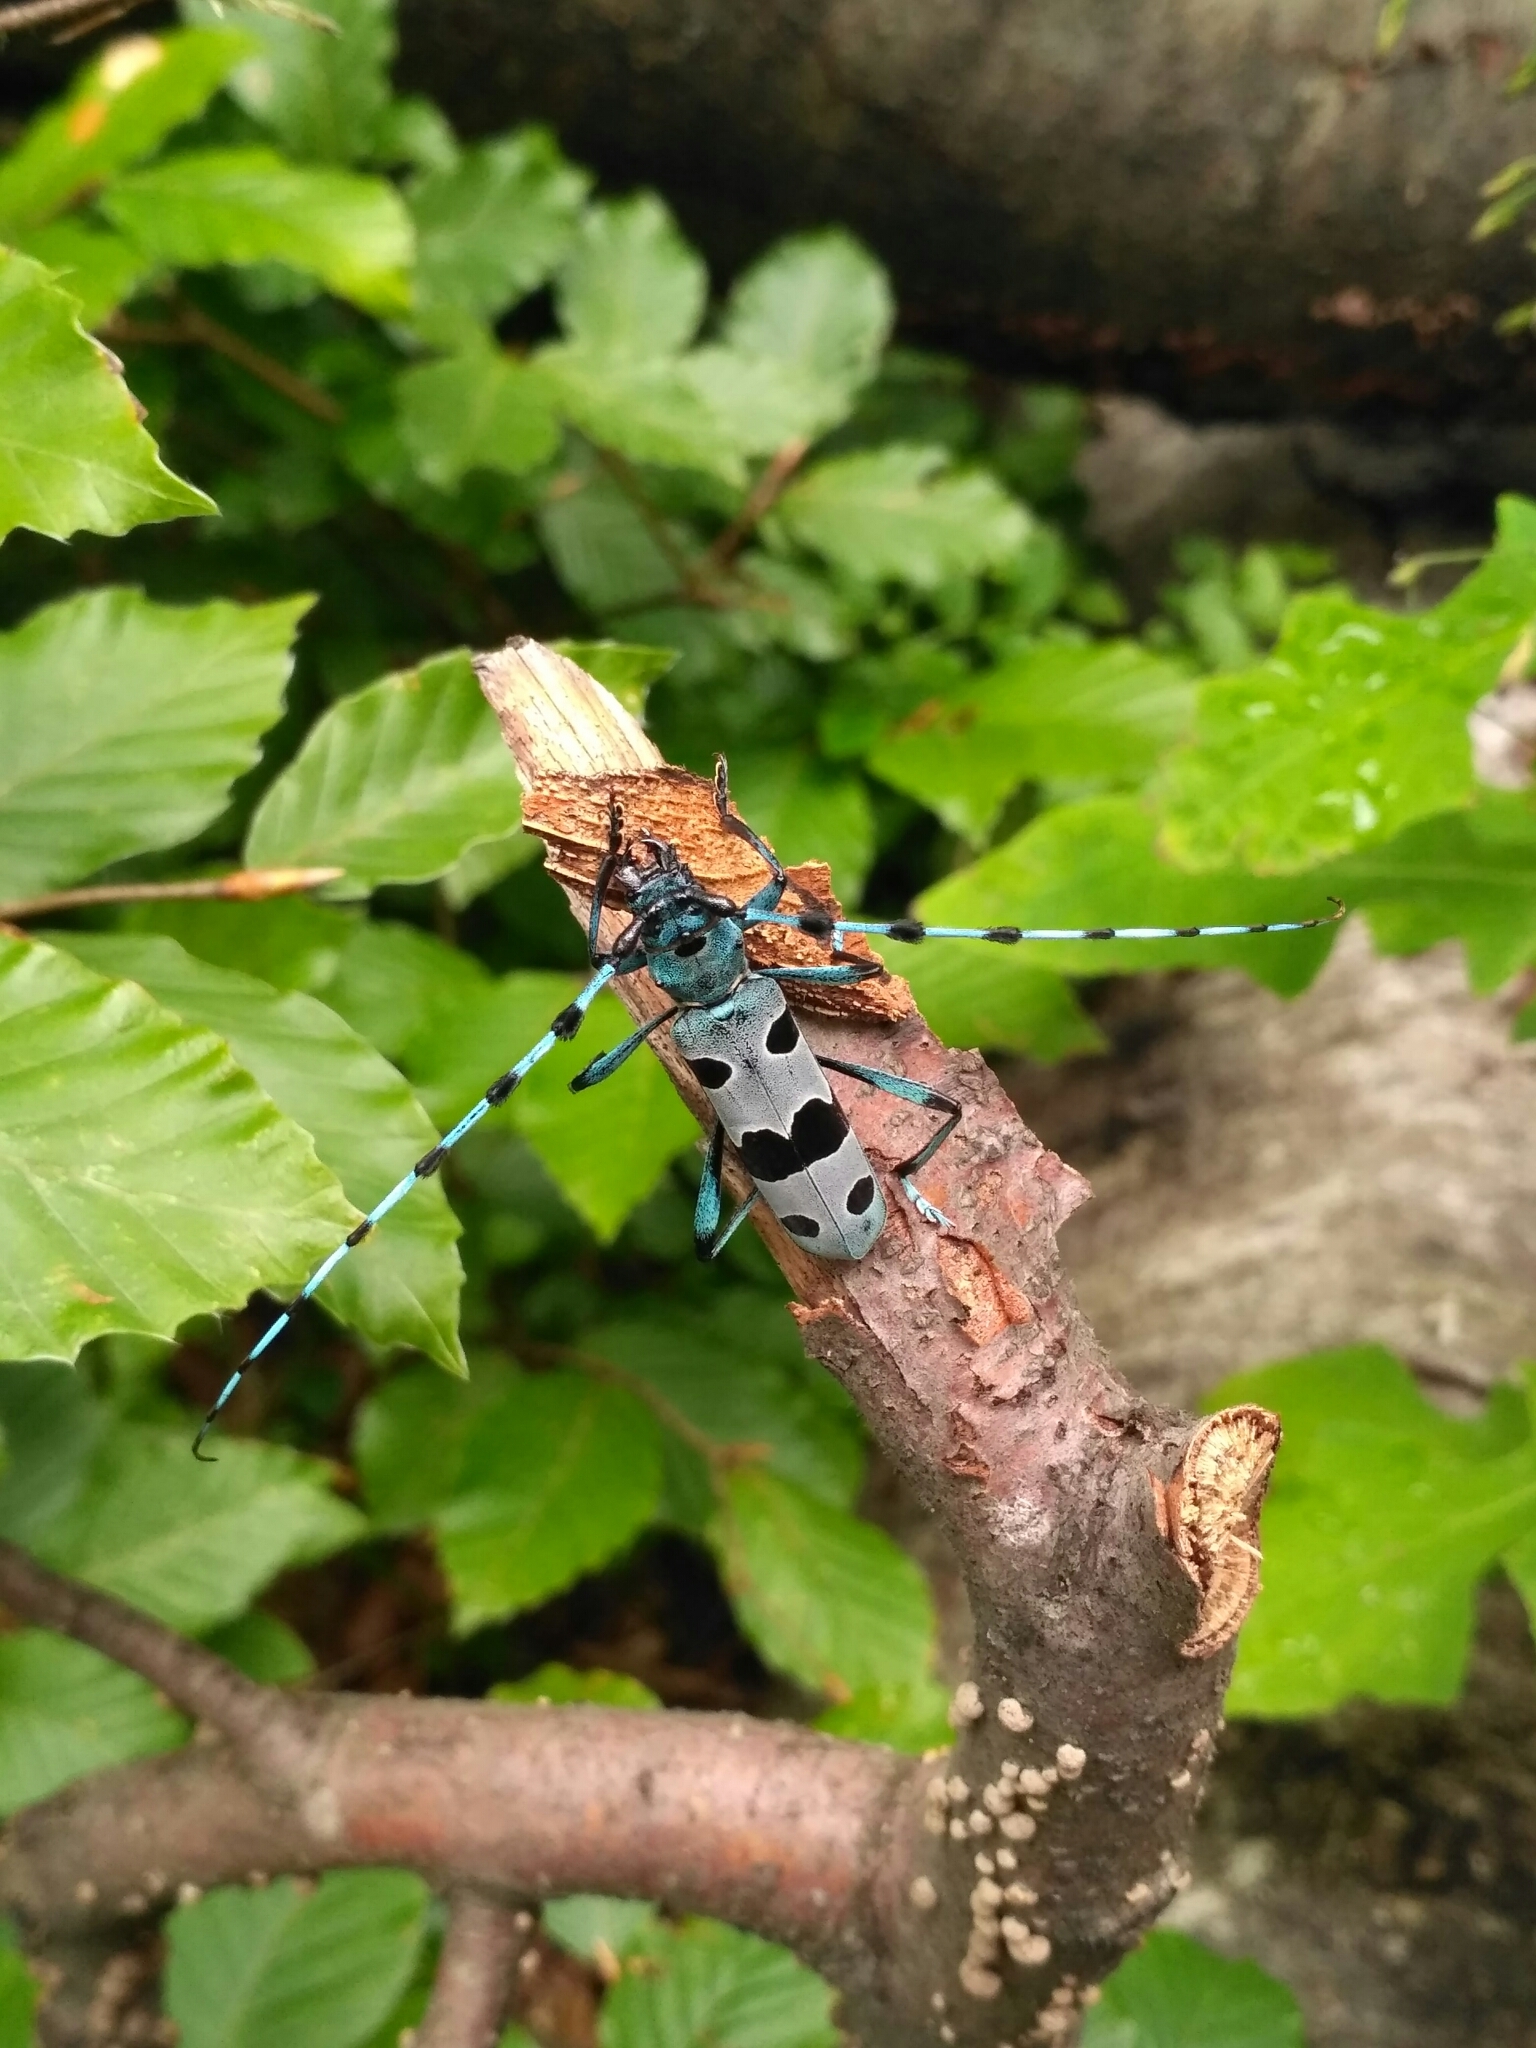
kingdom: Animalia
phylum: Arthropoda
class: Insecta
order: Coleoptera
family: Cerambycidae
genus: Rosalia
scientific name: Rosalia alpina
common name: Rosalia longicorn
